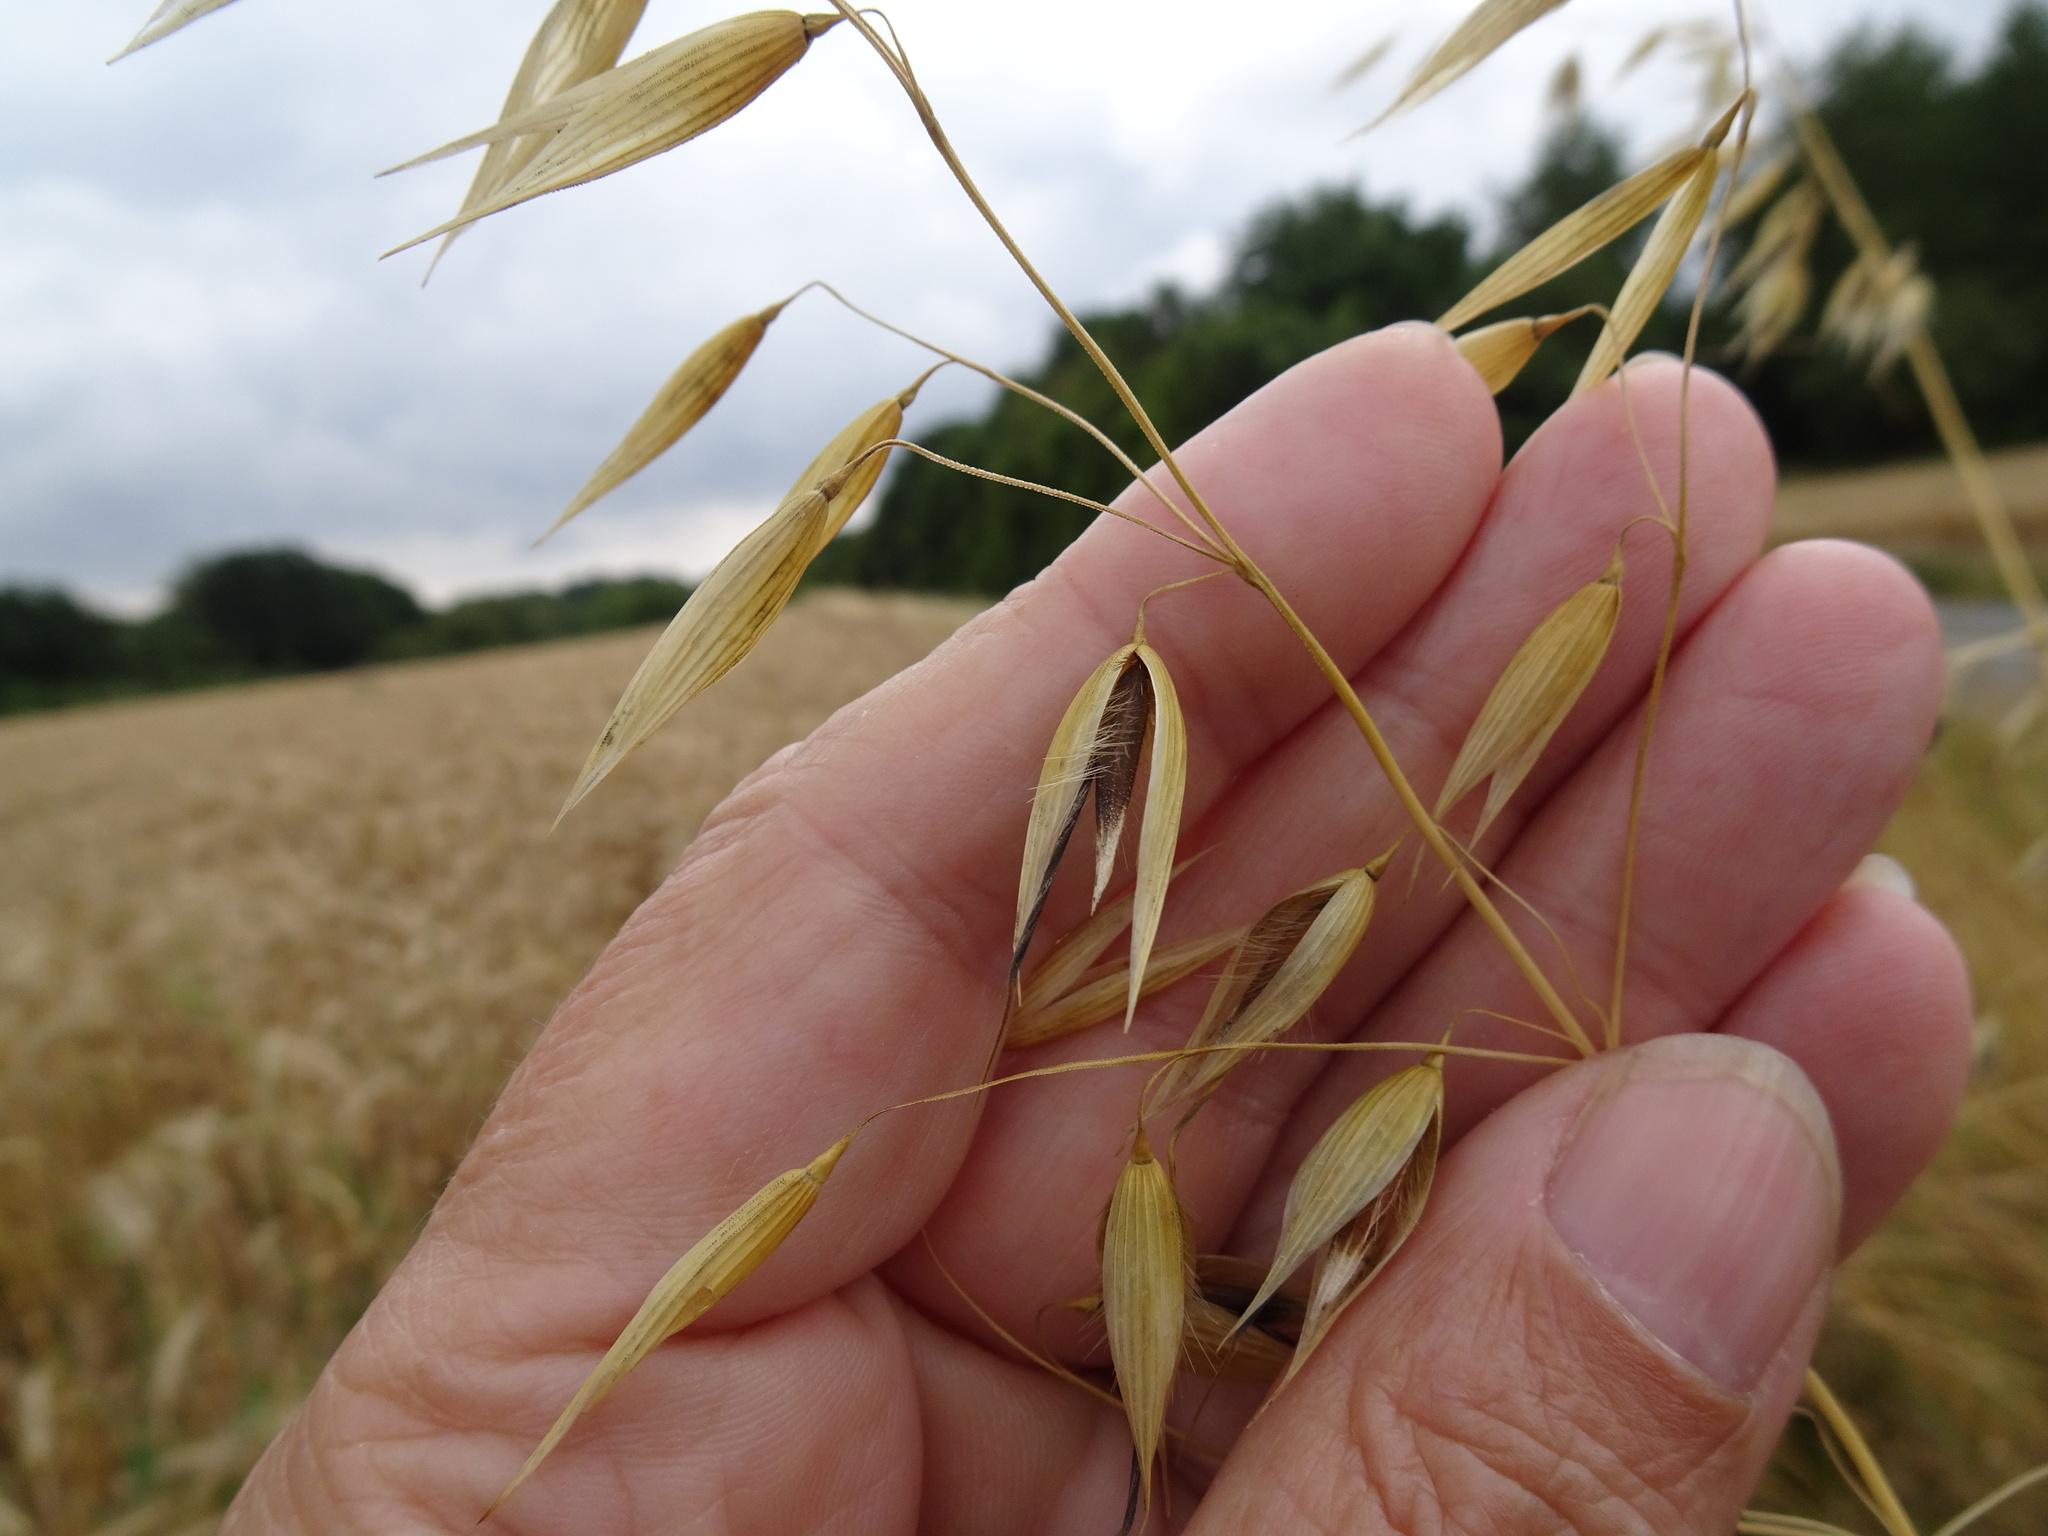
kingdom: Plantae
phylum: Tracheophyta
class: Liliopsida
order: Poales
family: Poaceae
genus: Avena
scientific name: Avena fatua
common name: Wild oat
